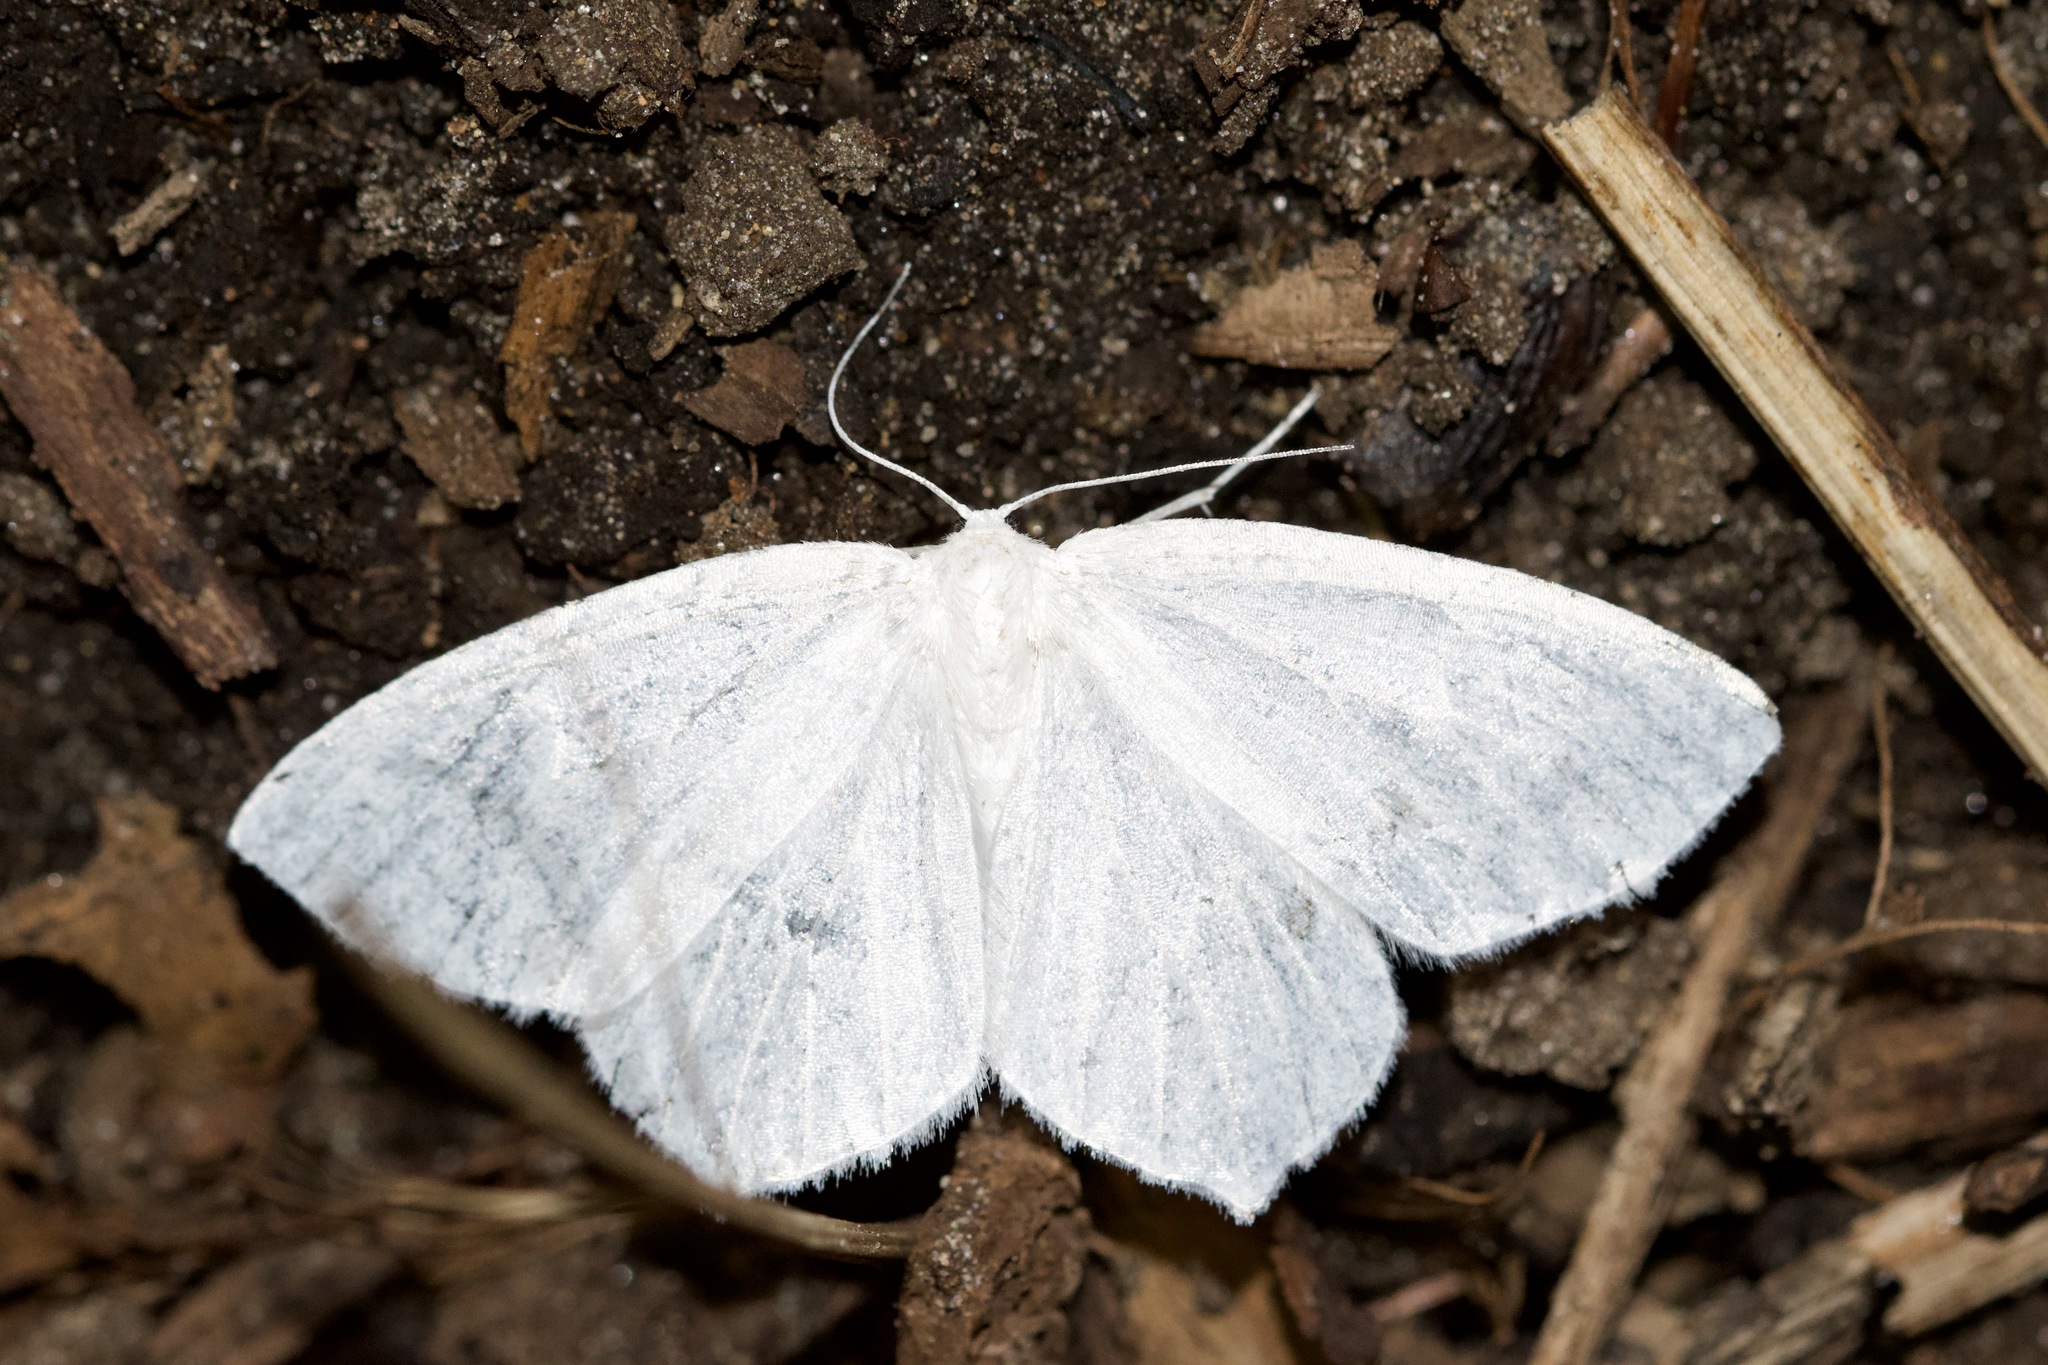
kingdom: Animalia
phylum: Arthropoda
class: Insecta
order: Lepidoptera
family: Geometridae
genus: Eugonobapta
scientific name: Eugonobapta nivosaria
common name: Snowy geometer
